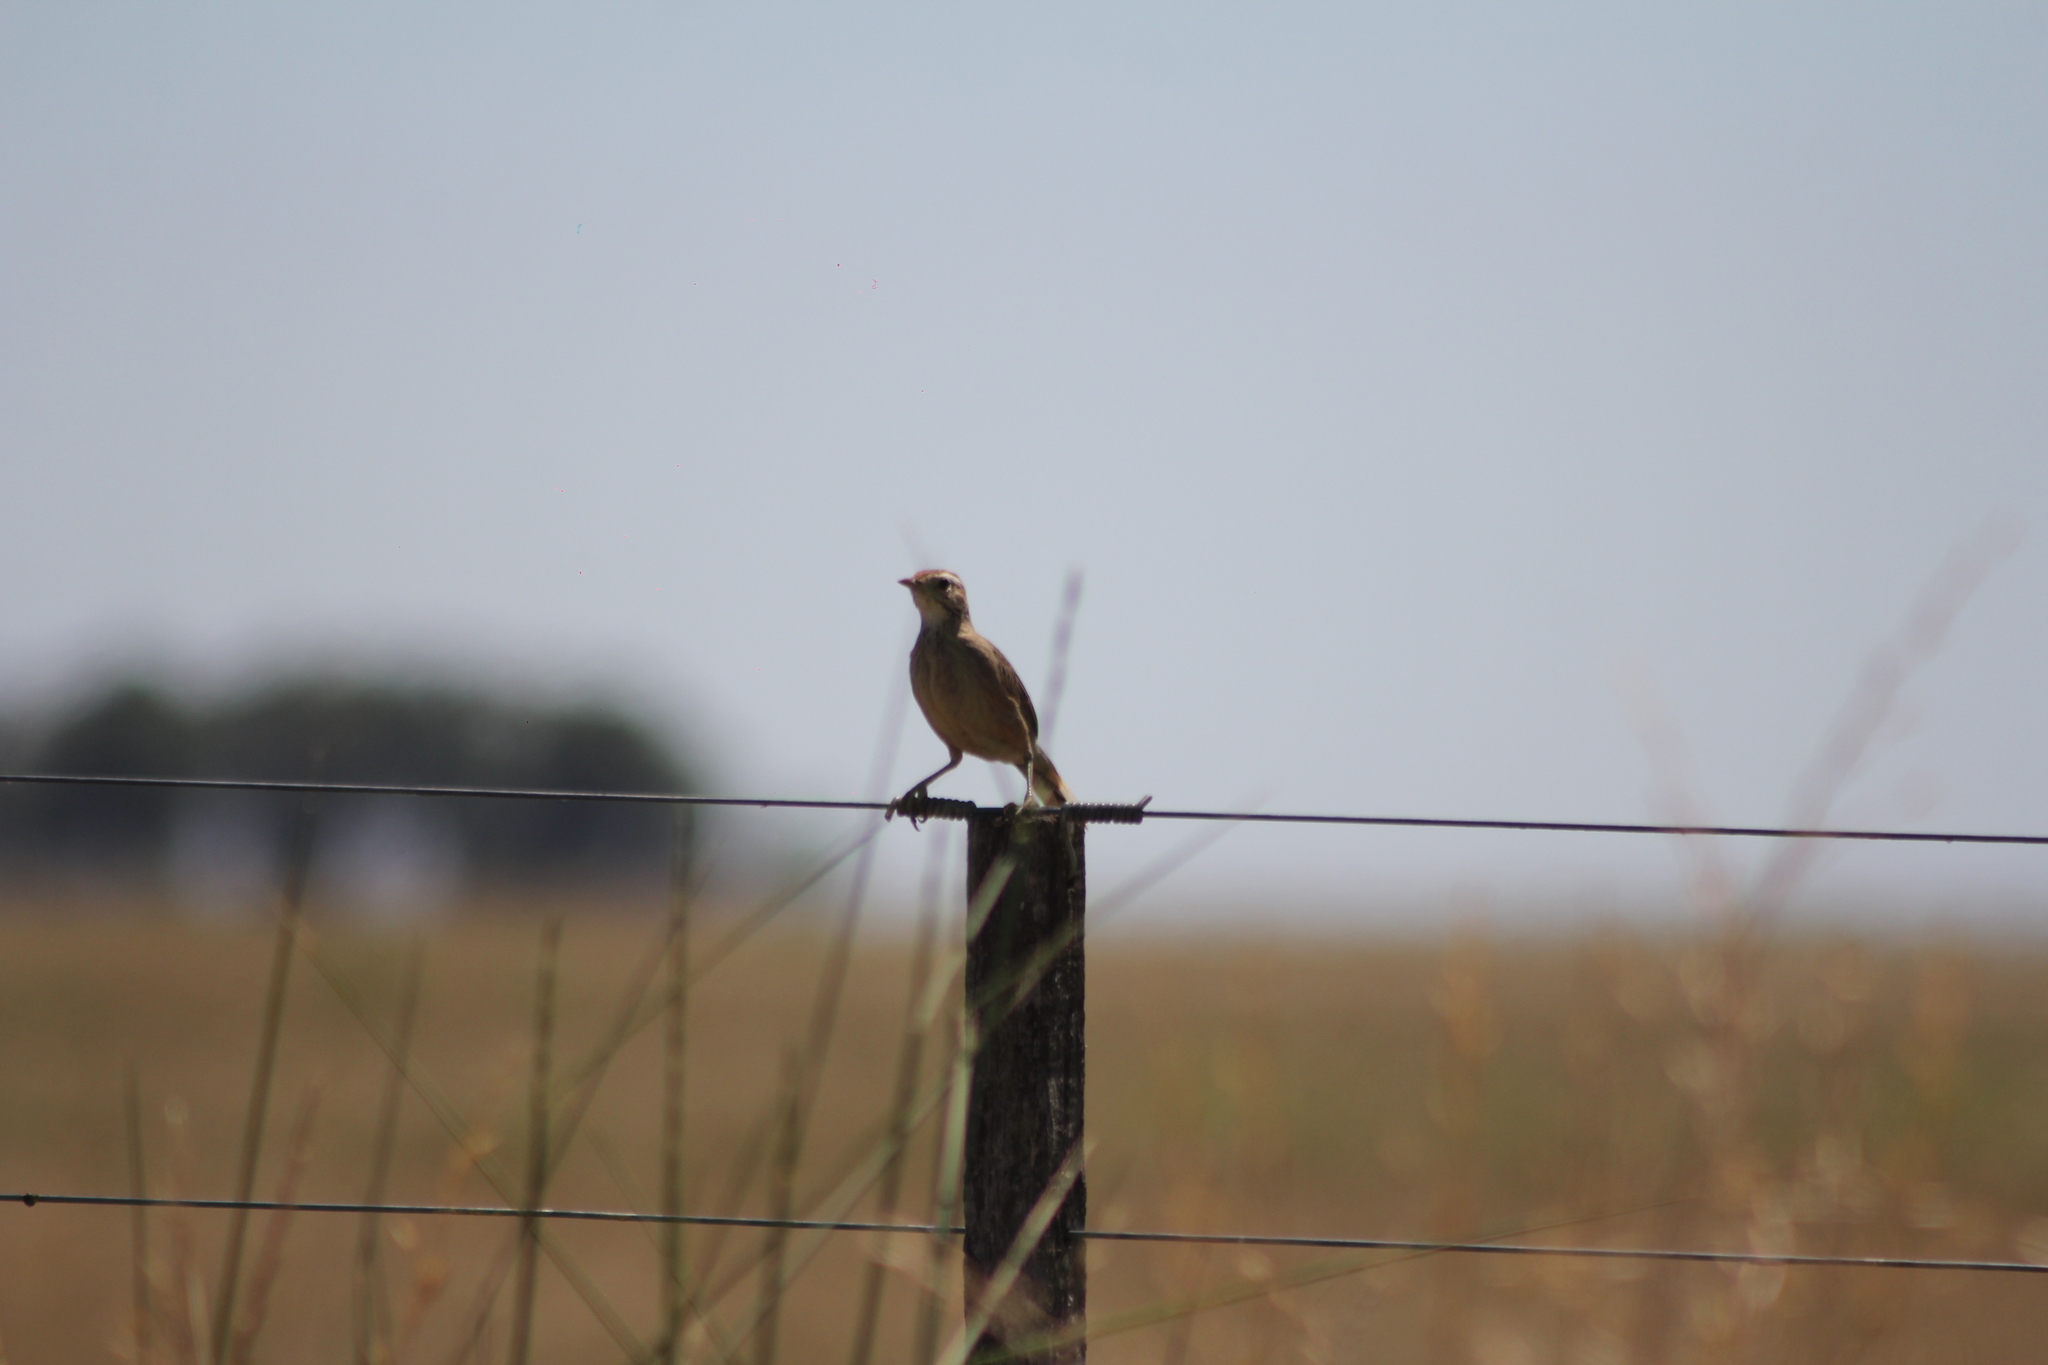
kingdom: Animalia
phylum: Chordata
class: Aves
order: Passeriformes
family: Furnariidae
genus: Anumbius
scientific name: Anumbius annumbi
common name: Firewood-gatherer
